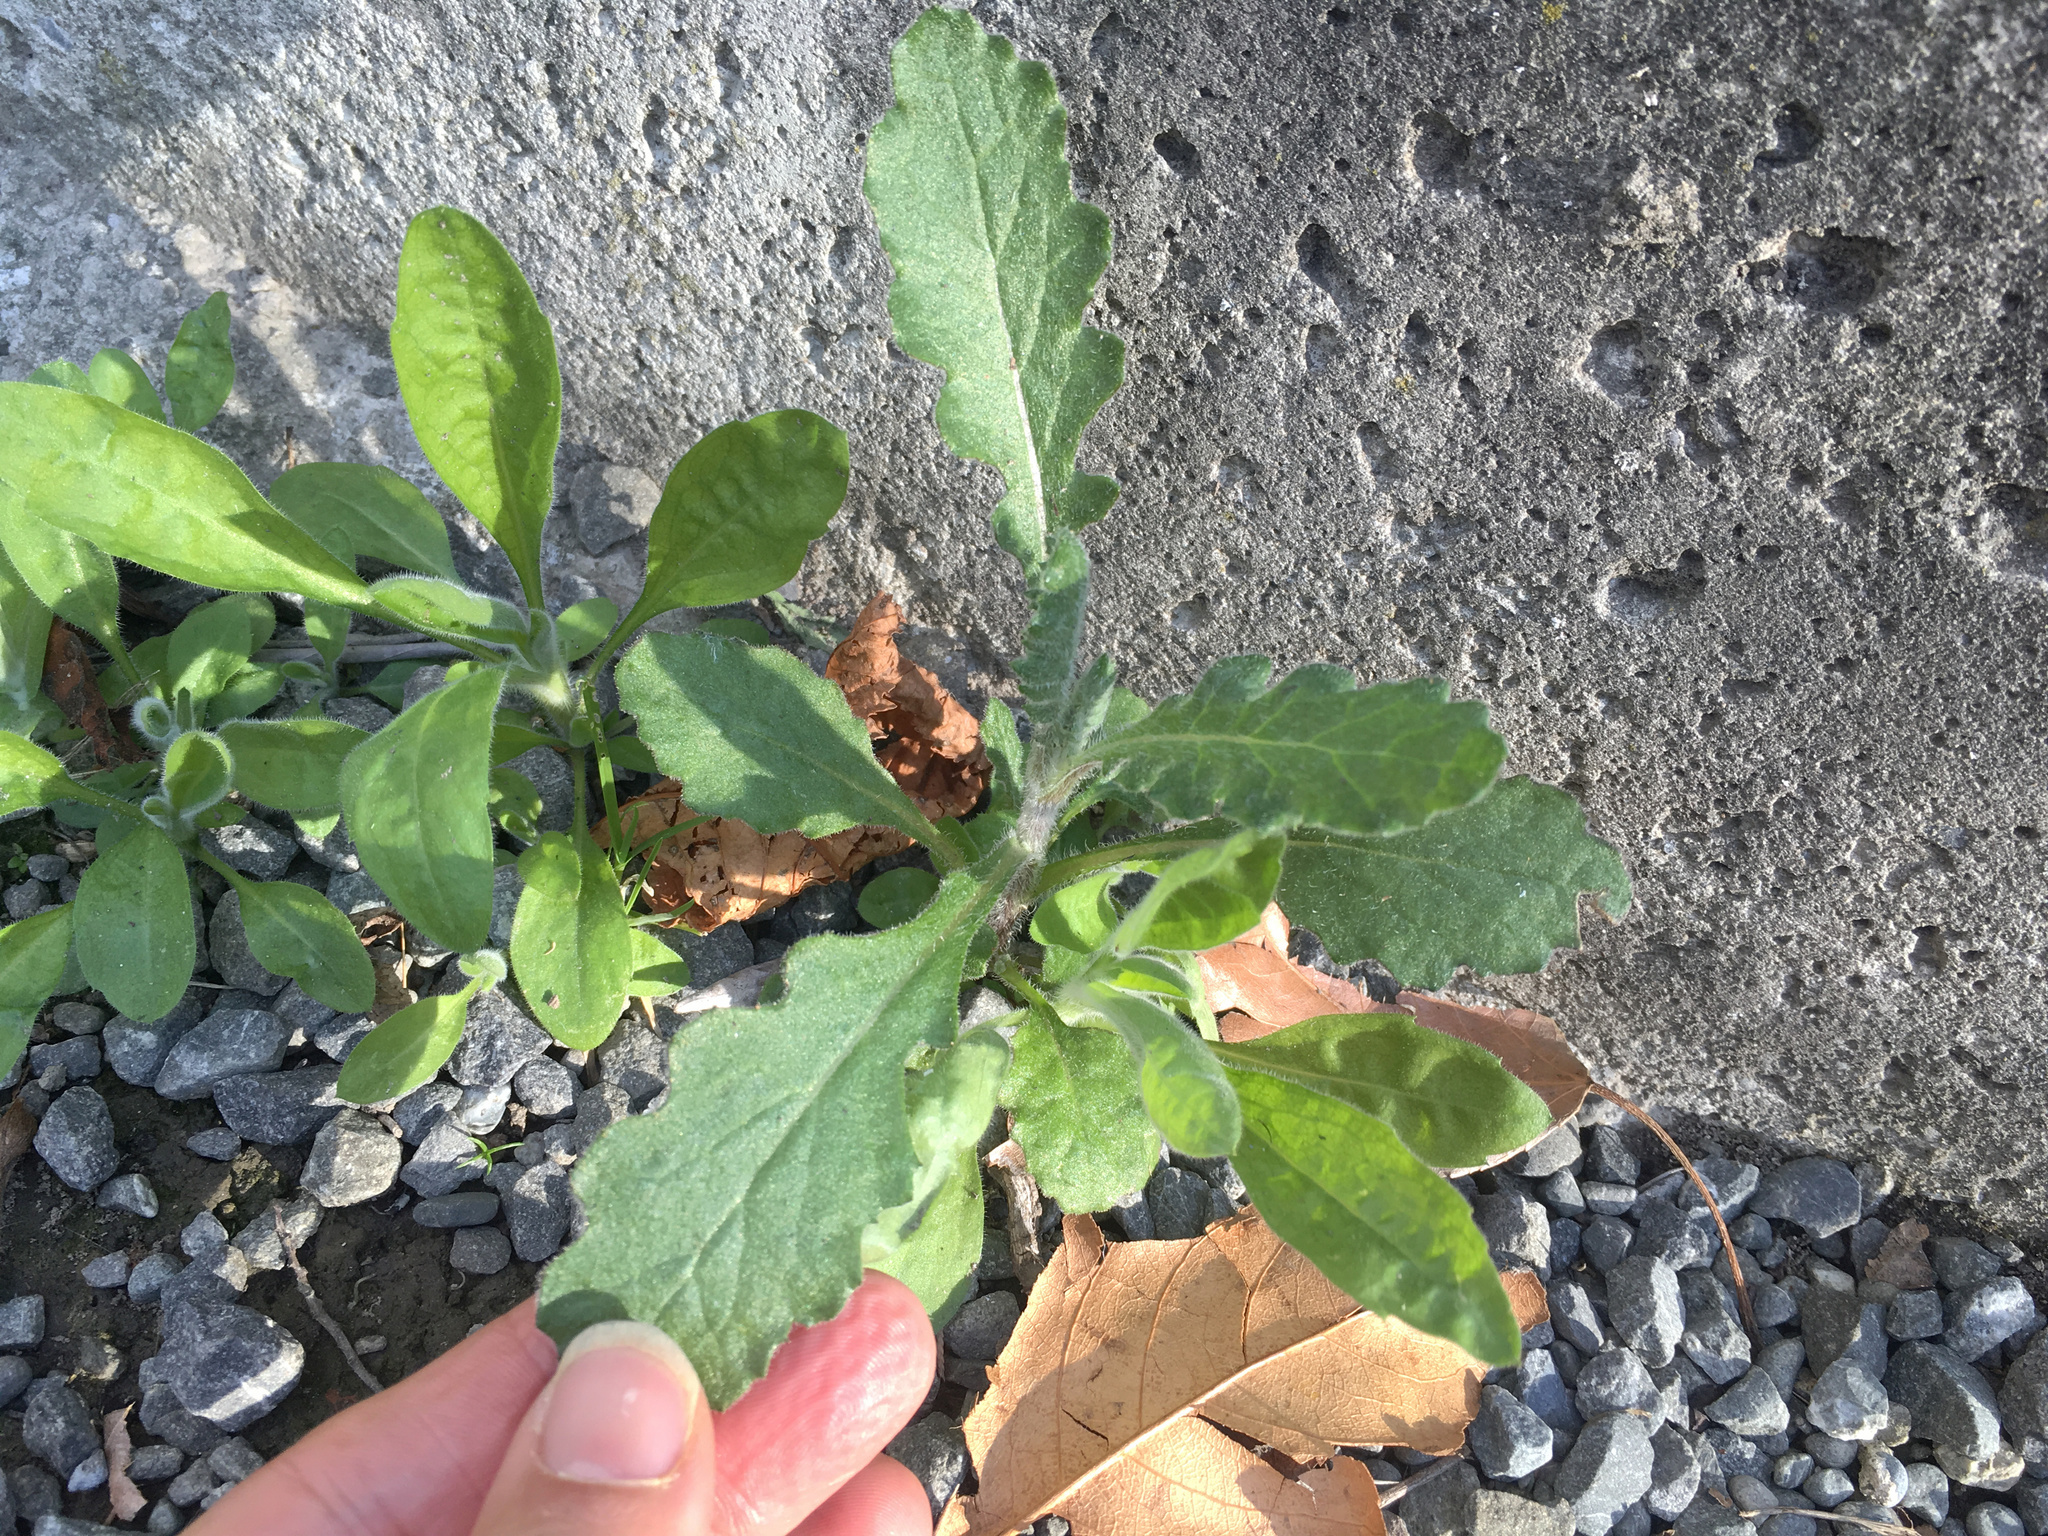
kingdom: Plantae
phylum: Tracheophyta
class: Magnoliopsida
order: Asterales
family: Asteraceae
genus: Senecio
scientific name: Senecio glomeratus
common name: Cutleaf burnweed
